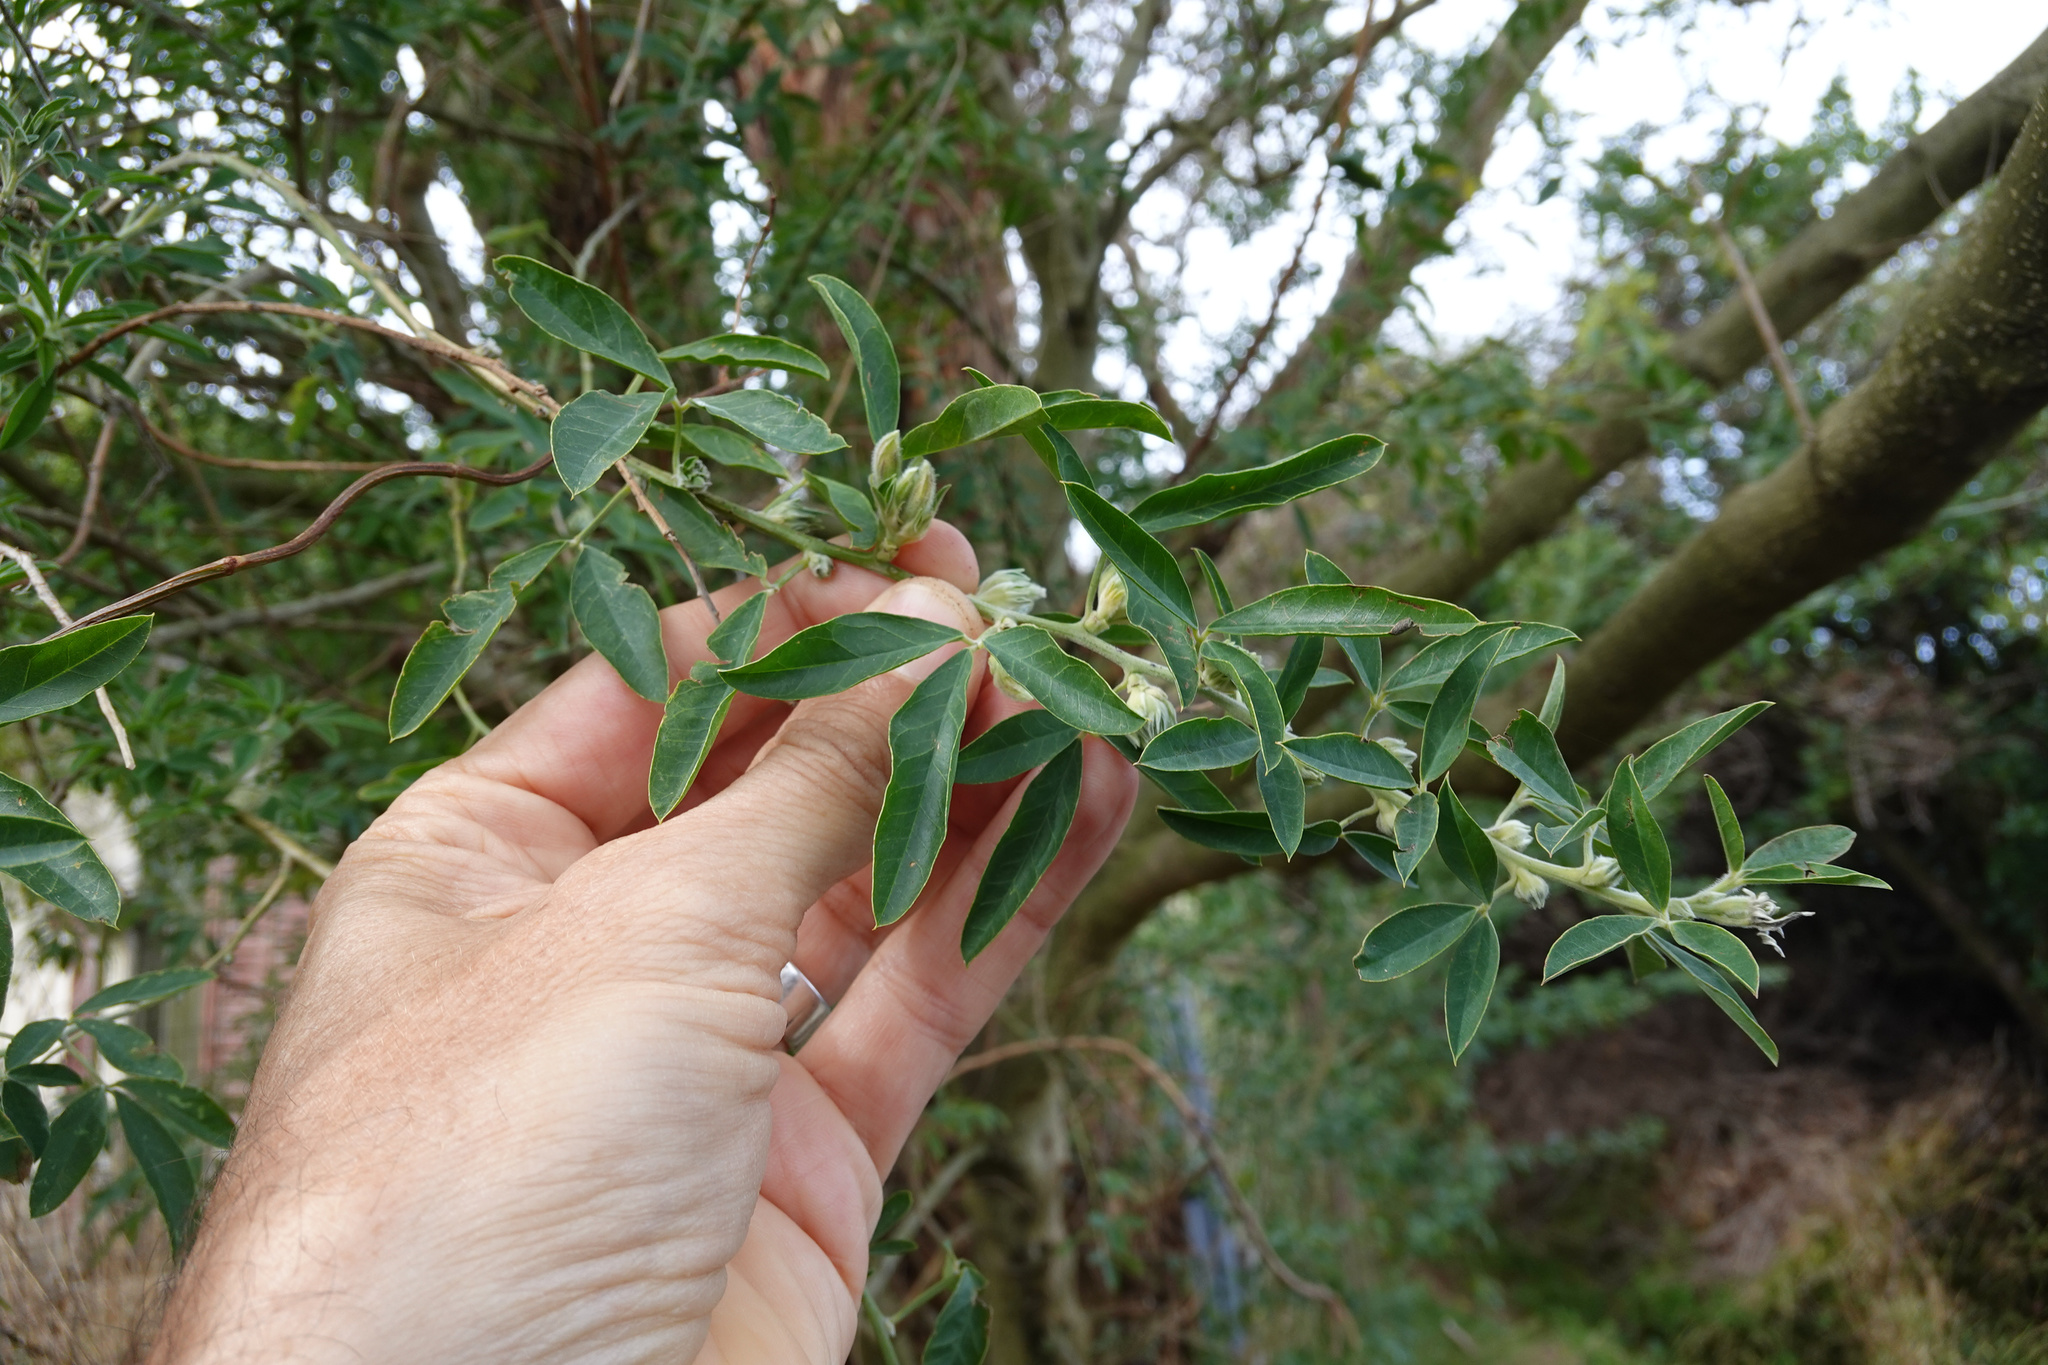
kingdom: Plantae
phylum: Tracheophyta
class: Magnoliopsida
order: Fabales
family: Fabaceae
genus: Chamaecytisus
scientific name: Chamaecytisus prolifer
